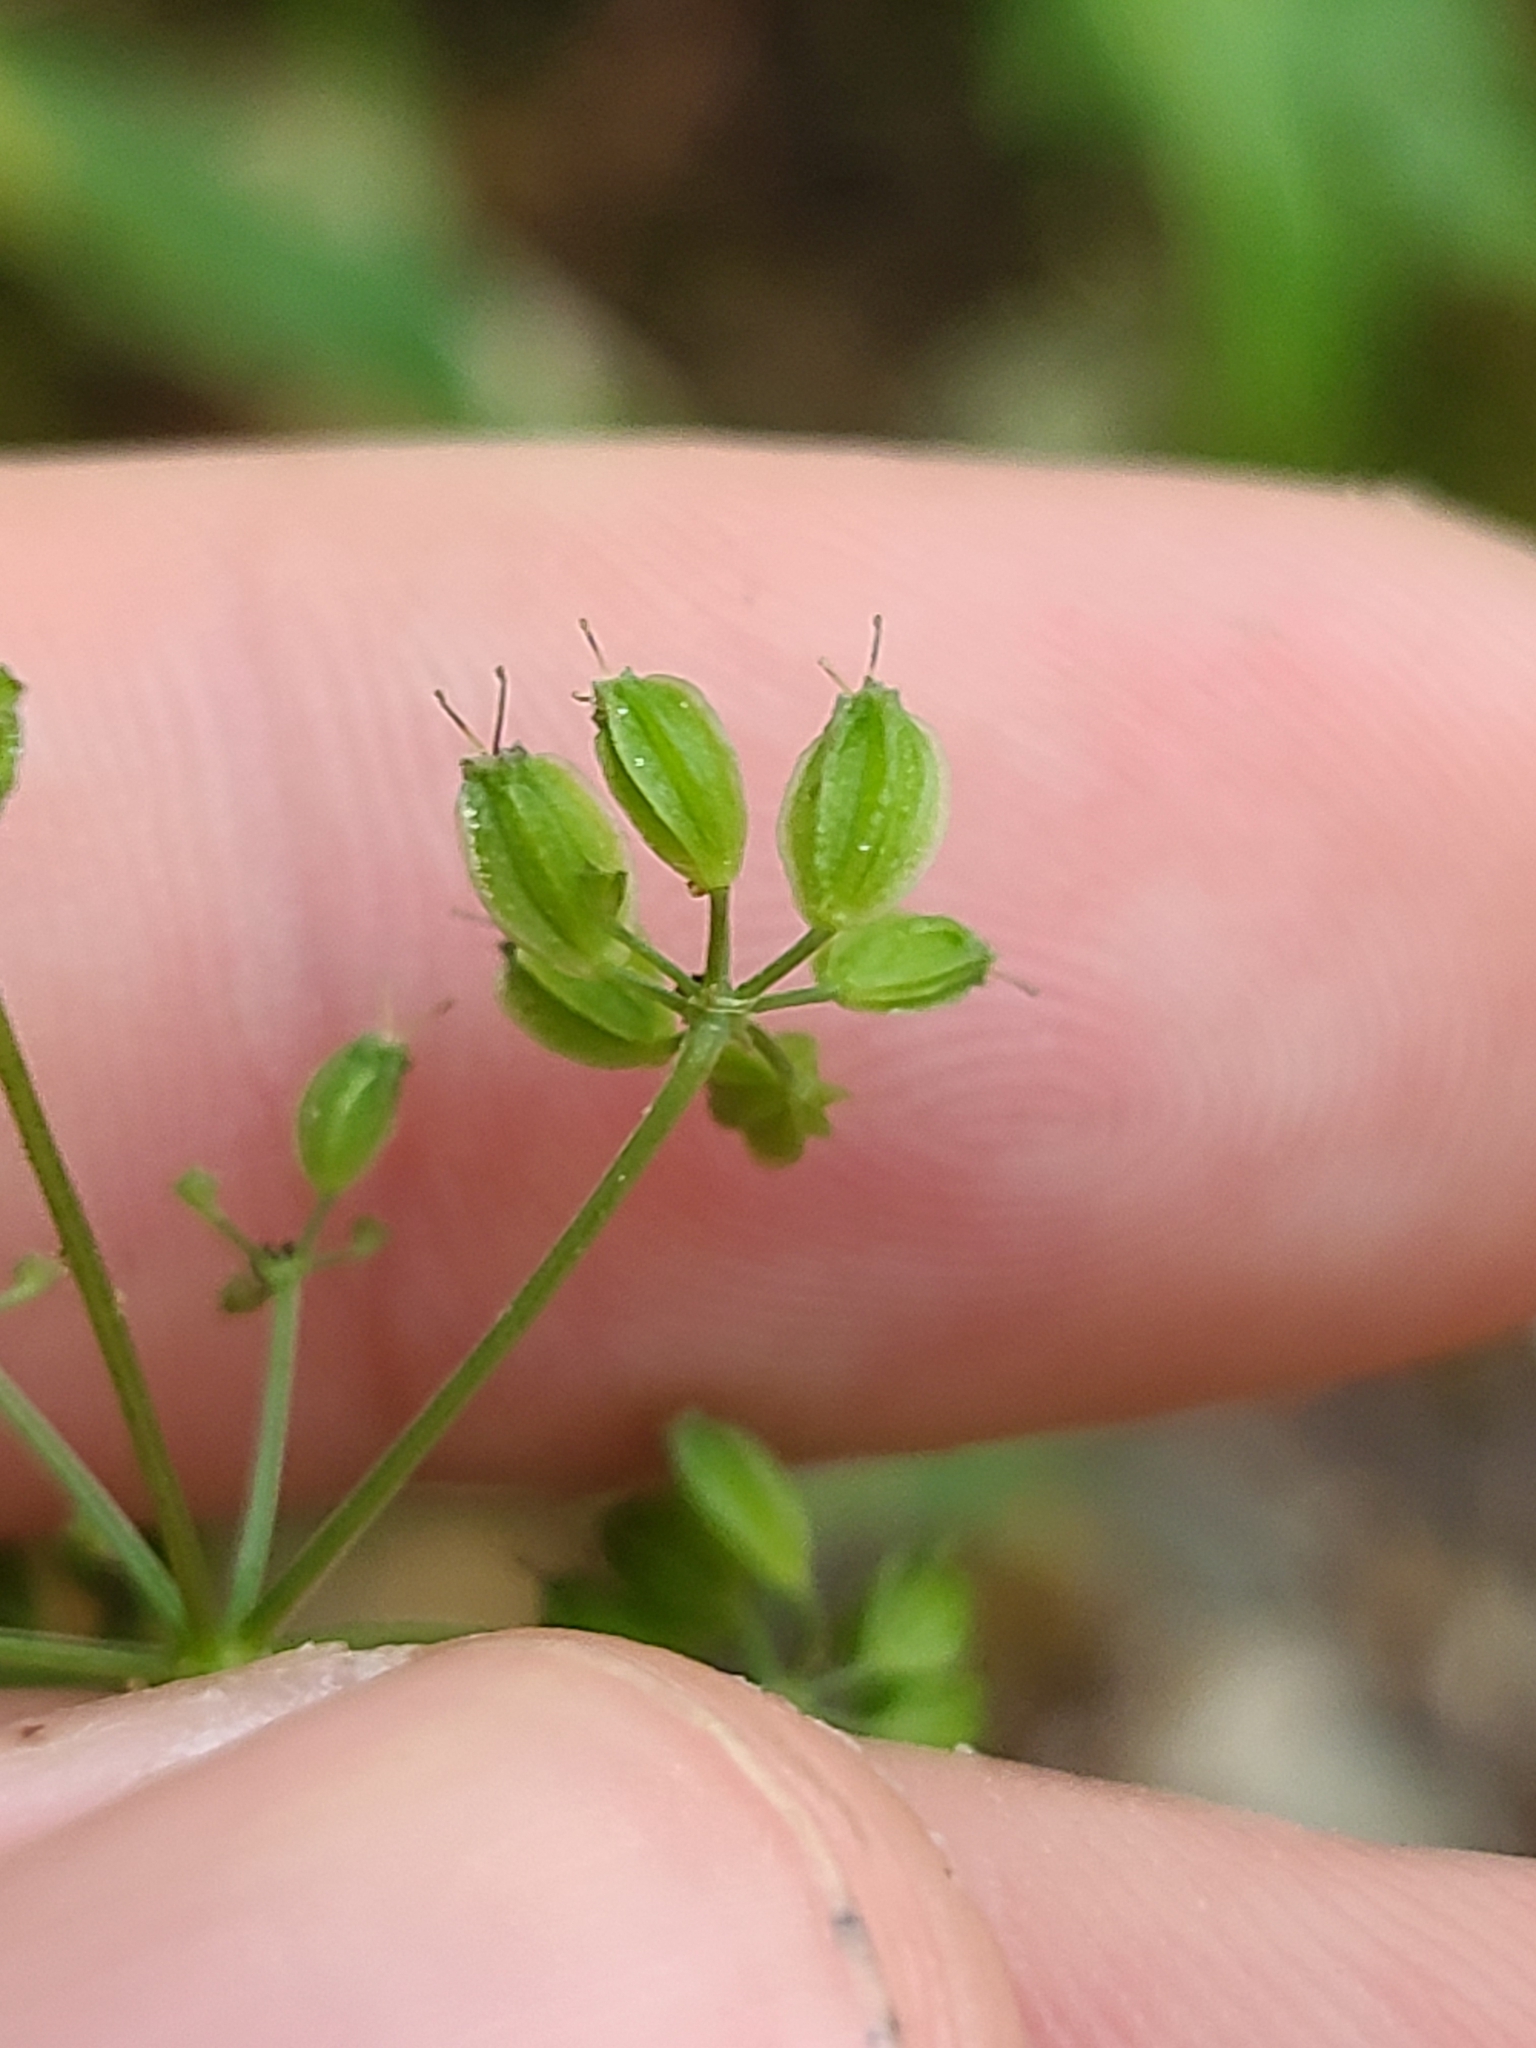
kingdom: Plantae
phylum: Tracheophyta
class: Magnoliopsida
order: Apiales
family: Apiaceae
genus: Thaspium
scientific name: Thaspium trifoliatum
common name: Purple meadow-parsnip
